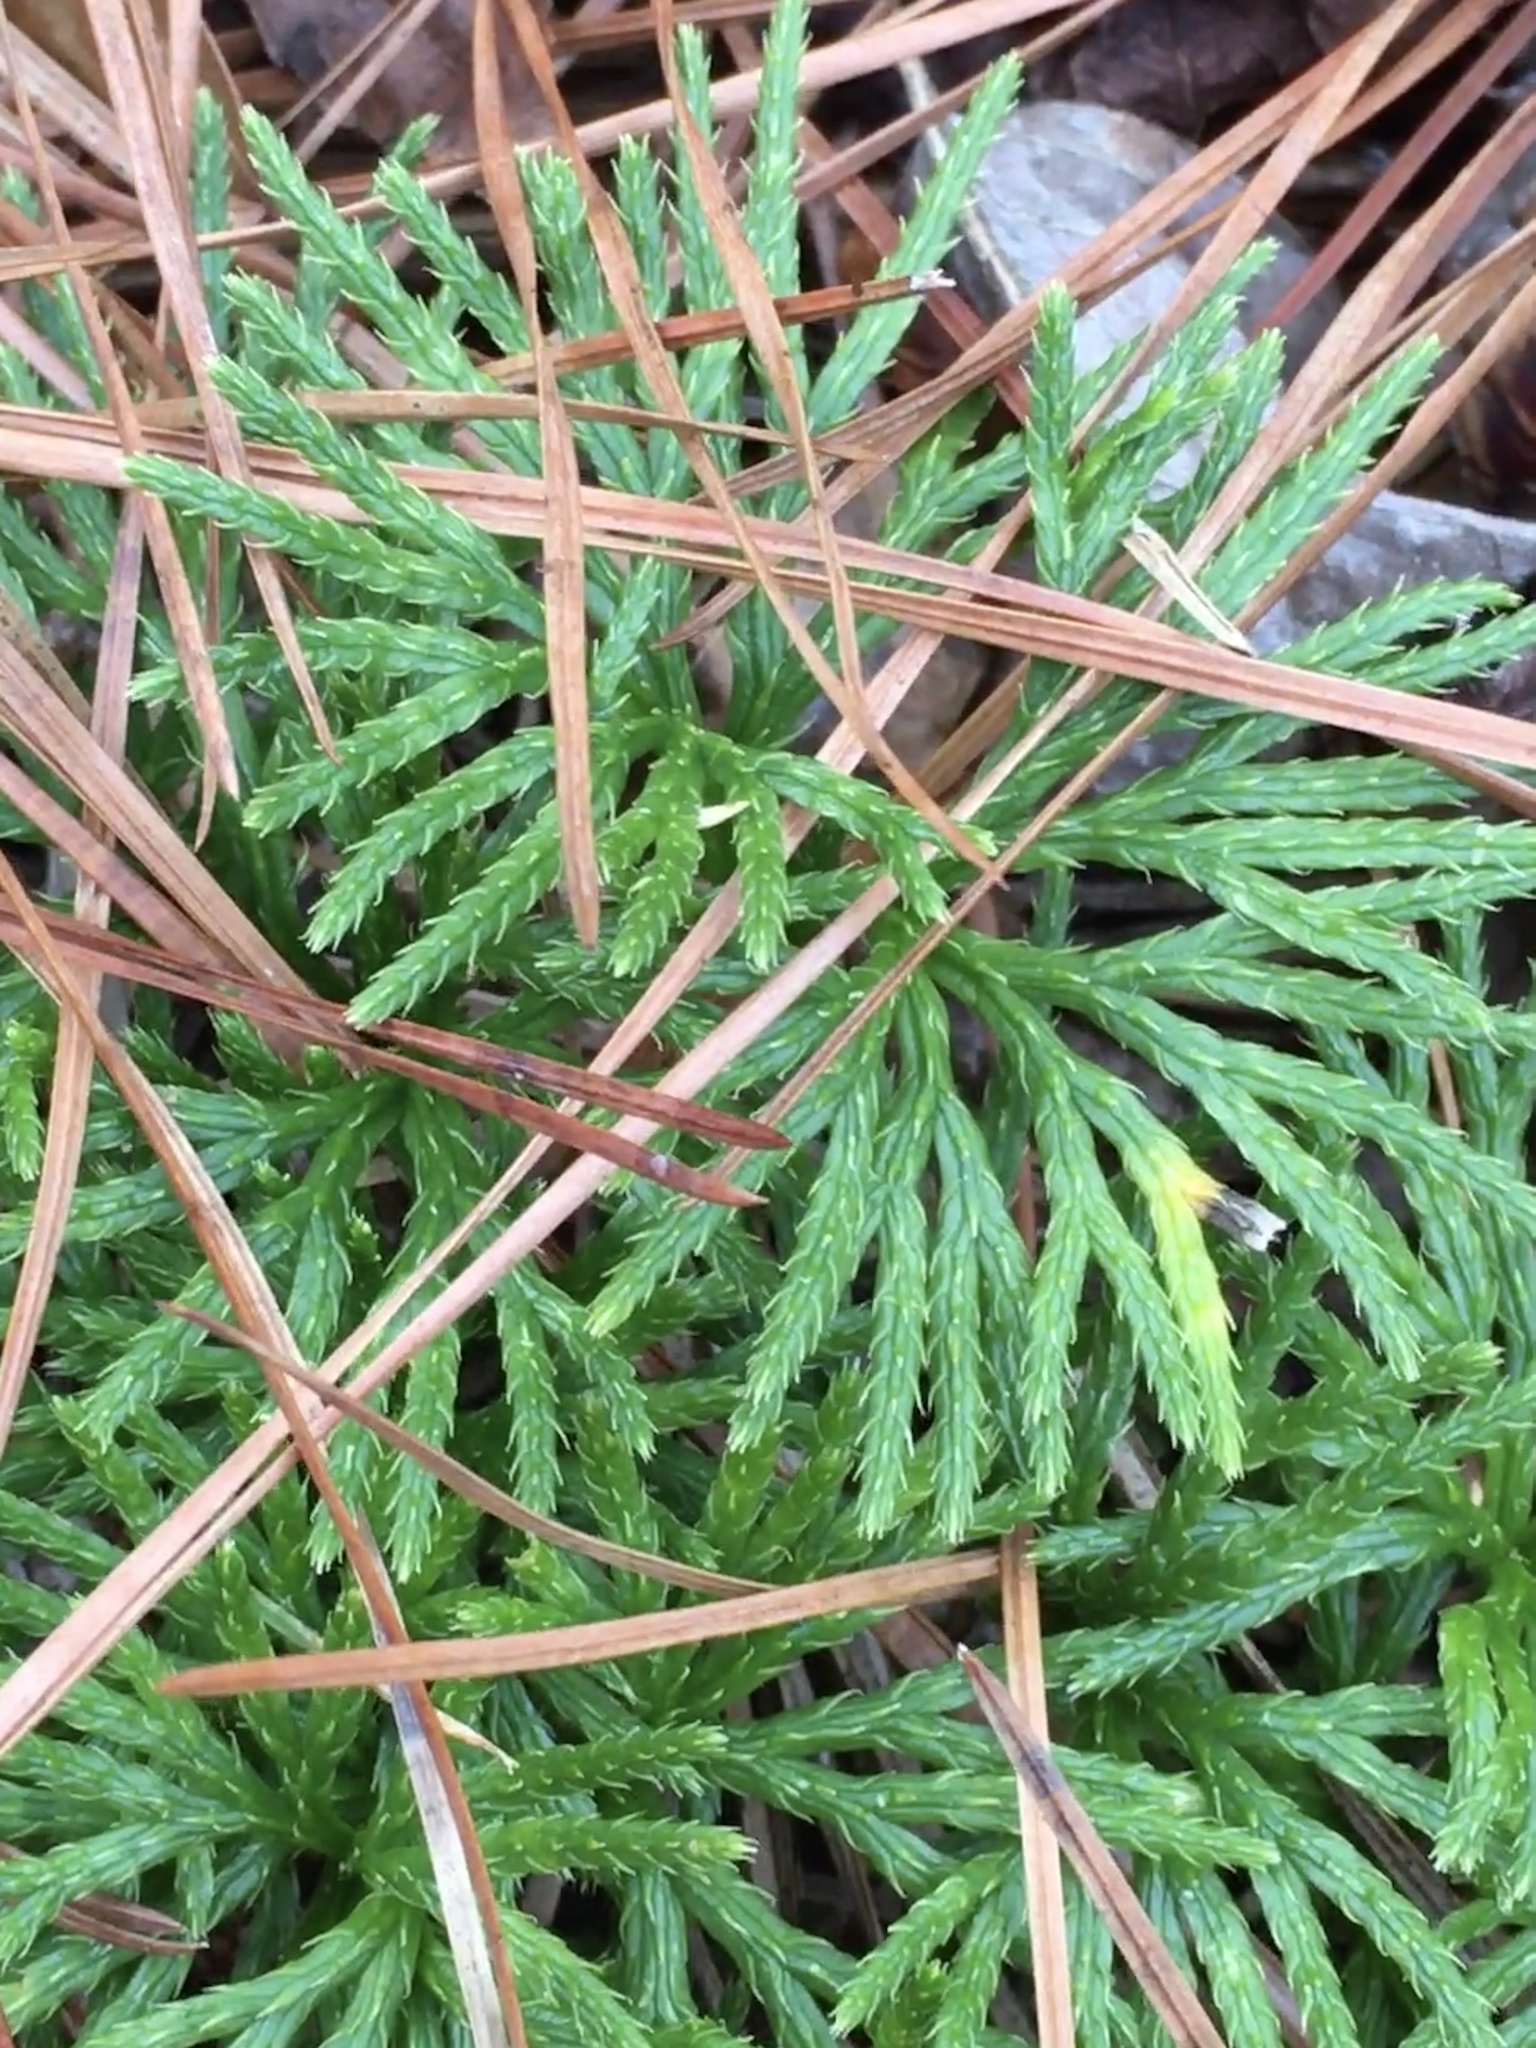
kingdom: Plantae
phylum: Tracheophyta
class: Lycopodiopsida
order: Lycopodiales
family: Lycopodiaceae
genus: Diphasiastrum
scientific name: Diphasiastrum digitatum
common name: Southern running-pine
